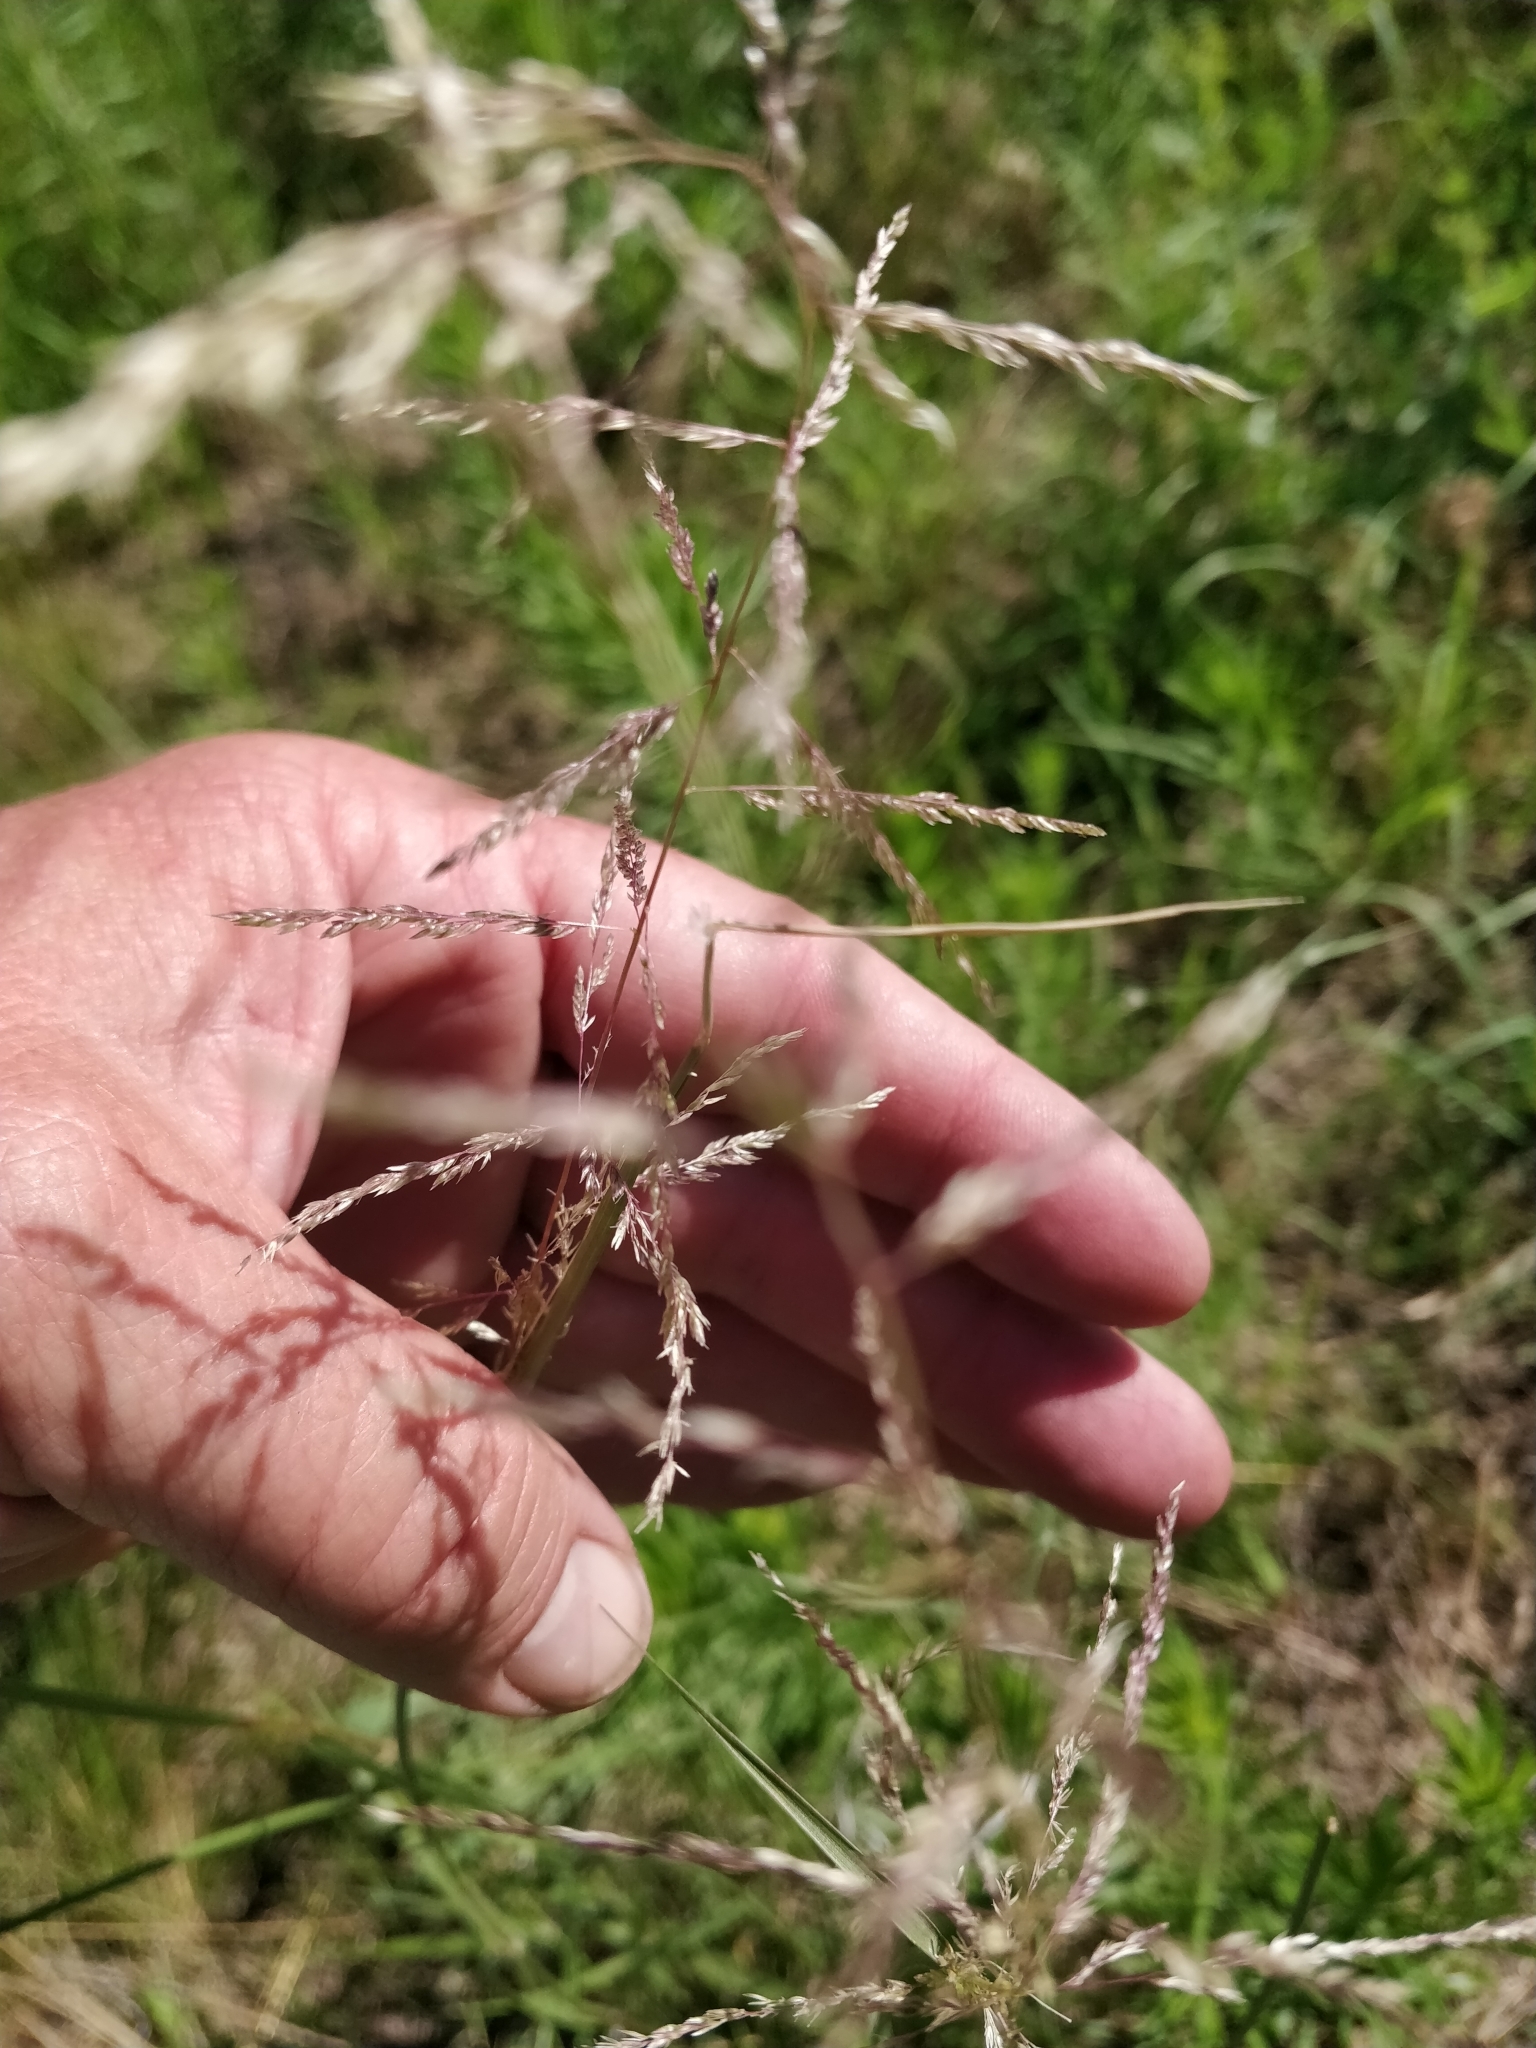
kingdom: Plantae
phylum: Tracheophyta
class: Liliopsida
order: Poales
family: Poaceae
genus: Sporobolus
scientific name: Sporobolus cryptandrus
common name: Sand dropseed
